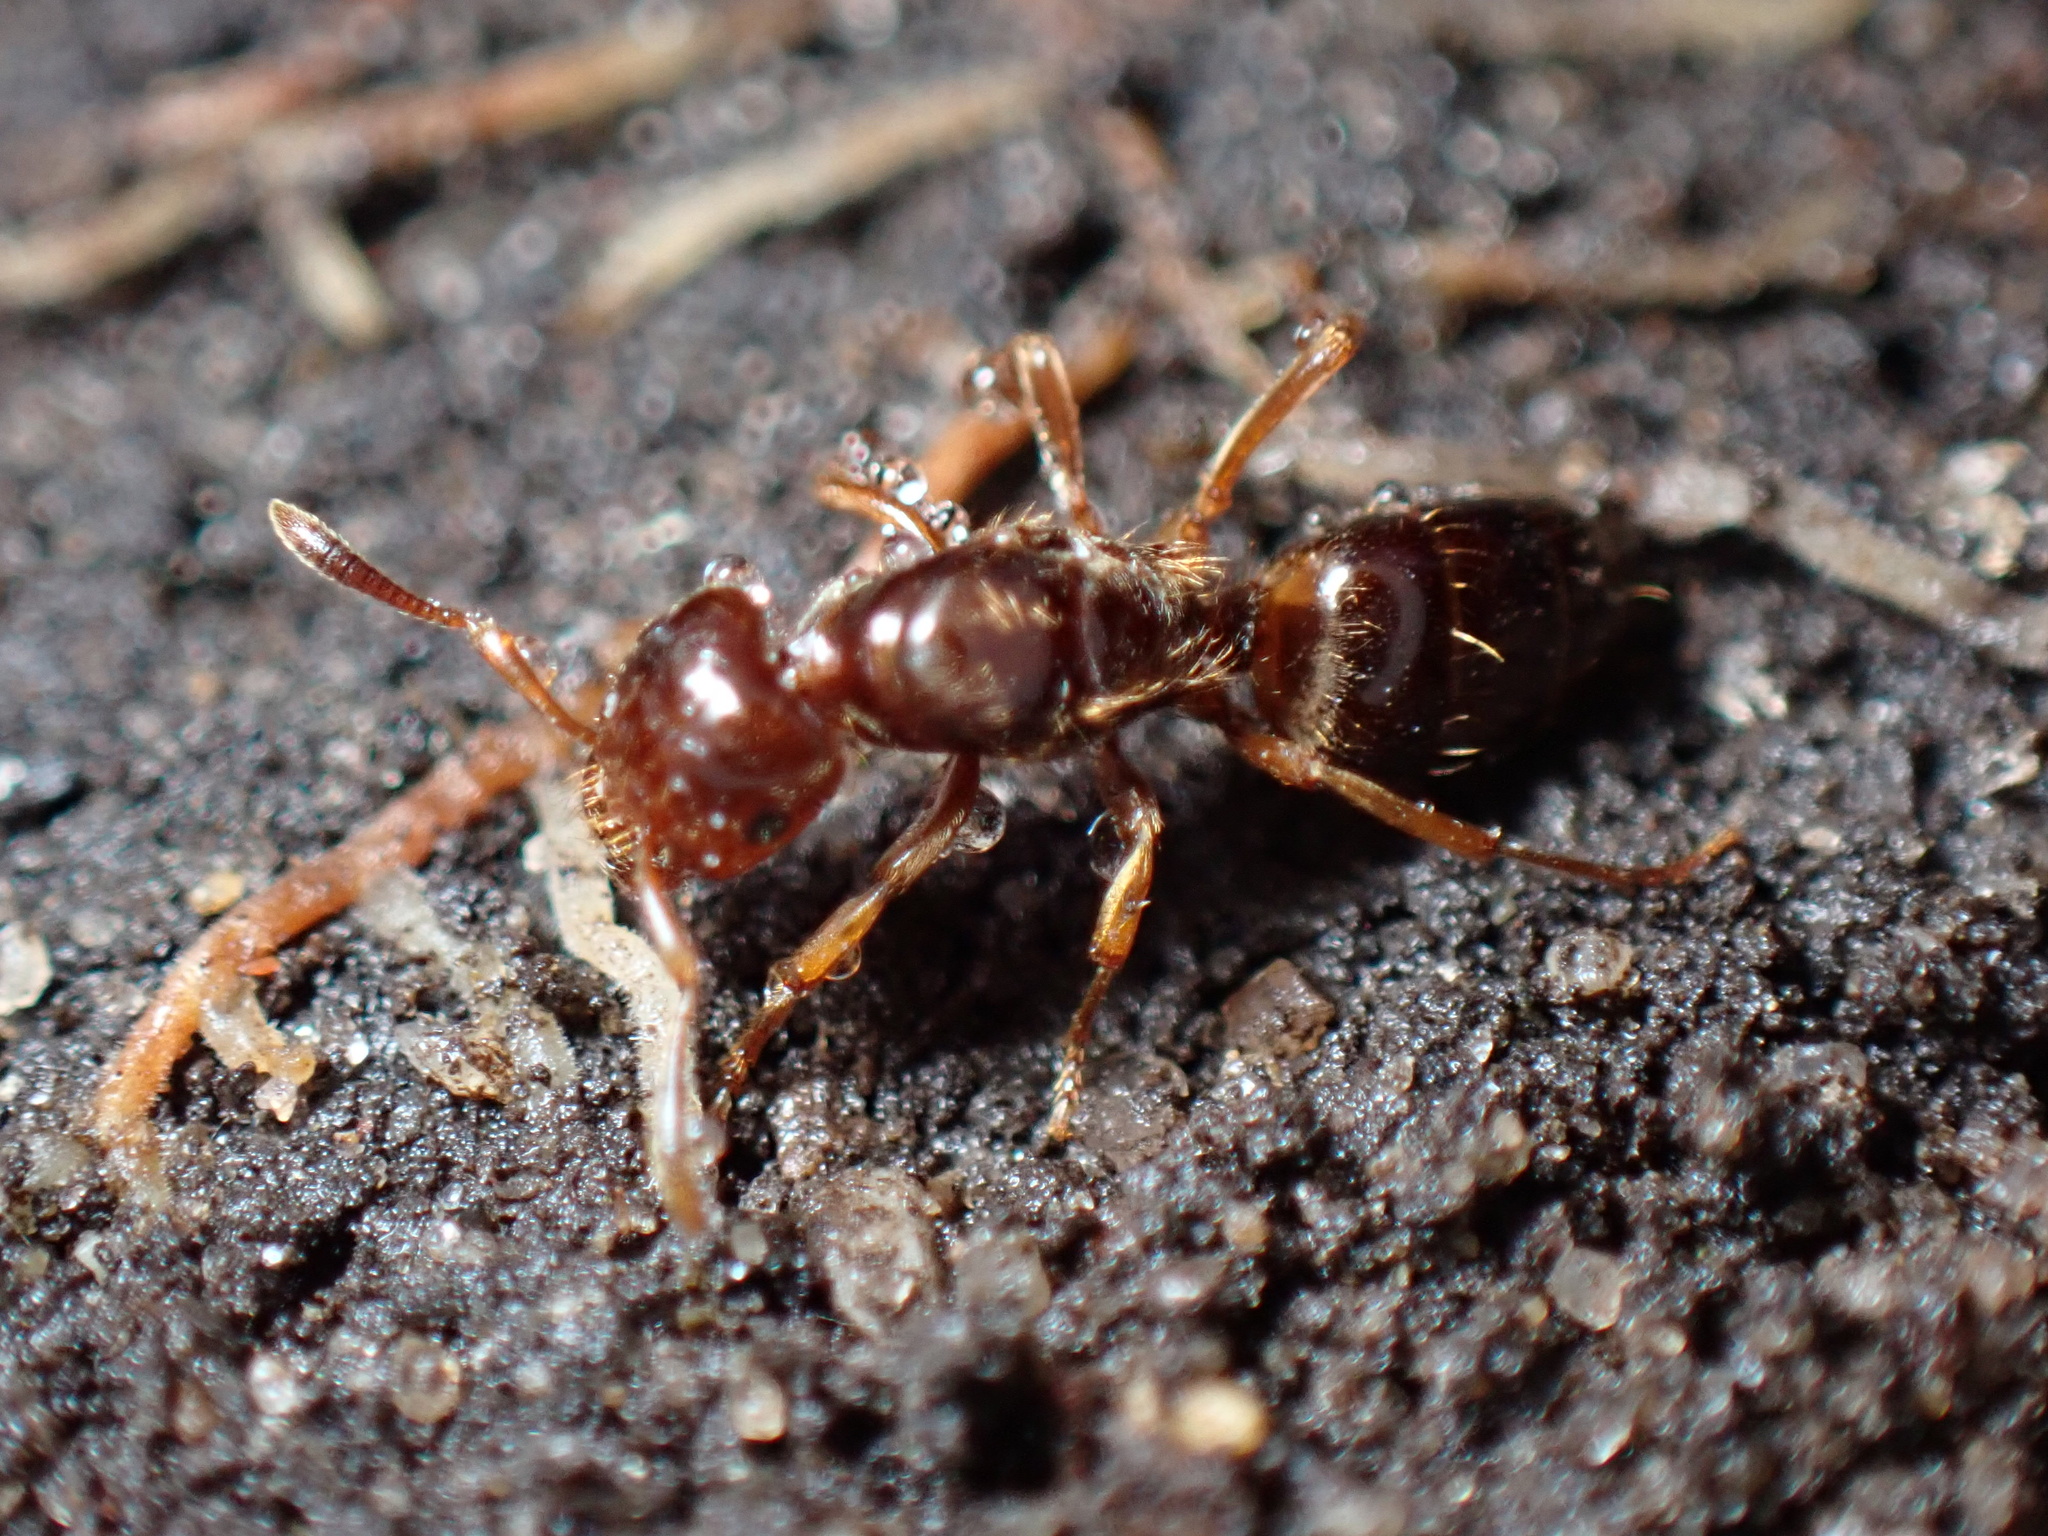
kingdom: Animalia
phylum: Arthropoda
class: Insecta
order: Hymenoptera
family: Formicidae
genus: Lasius
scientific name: Lasius claviger
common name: Common citronella ant
